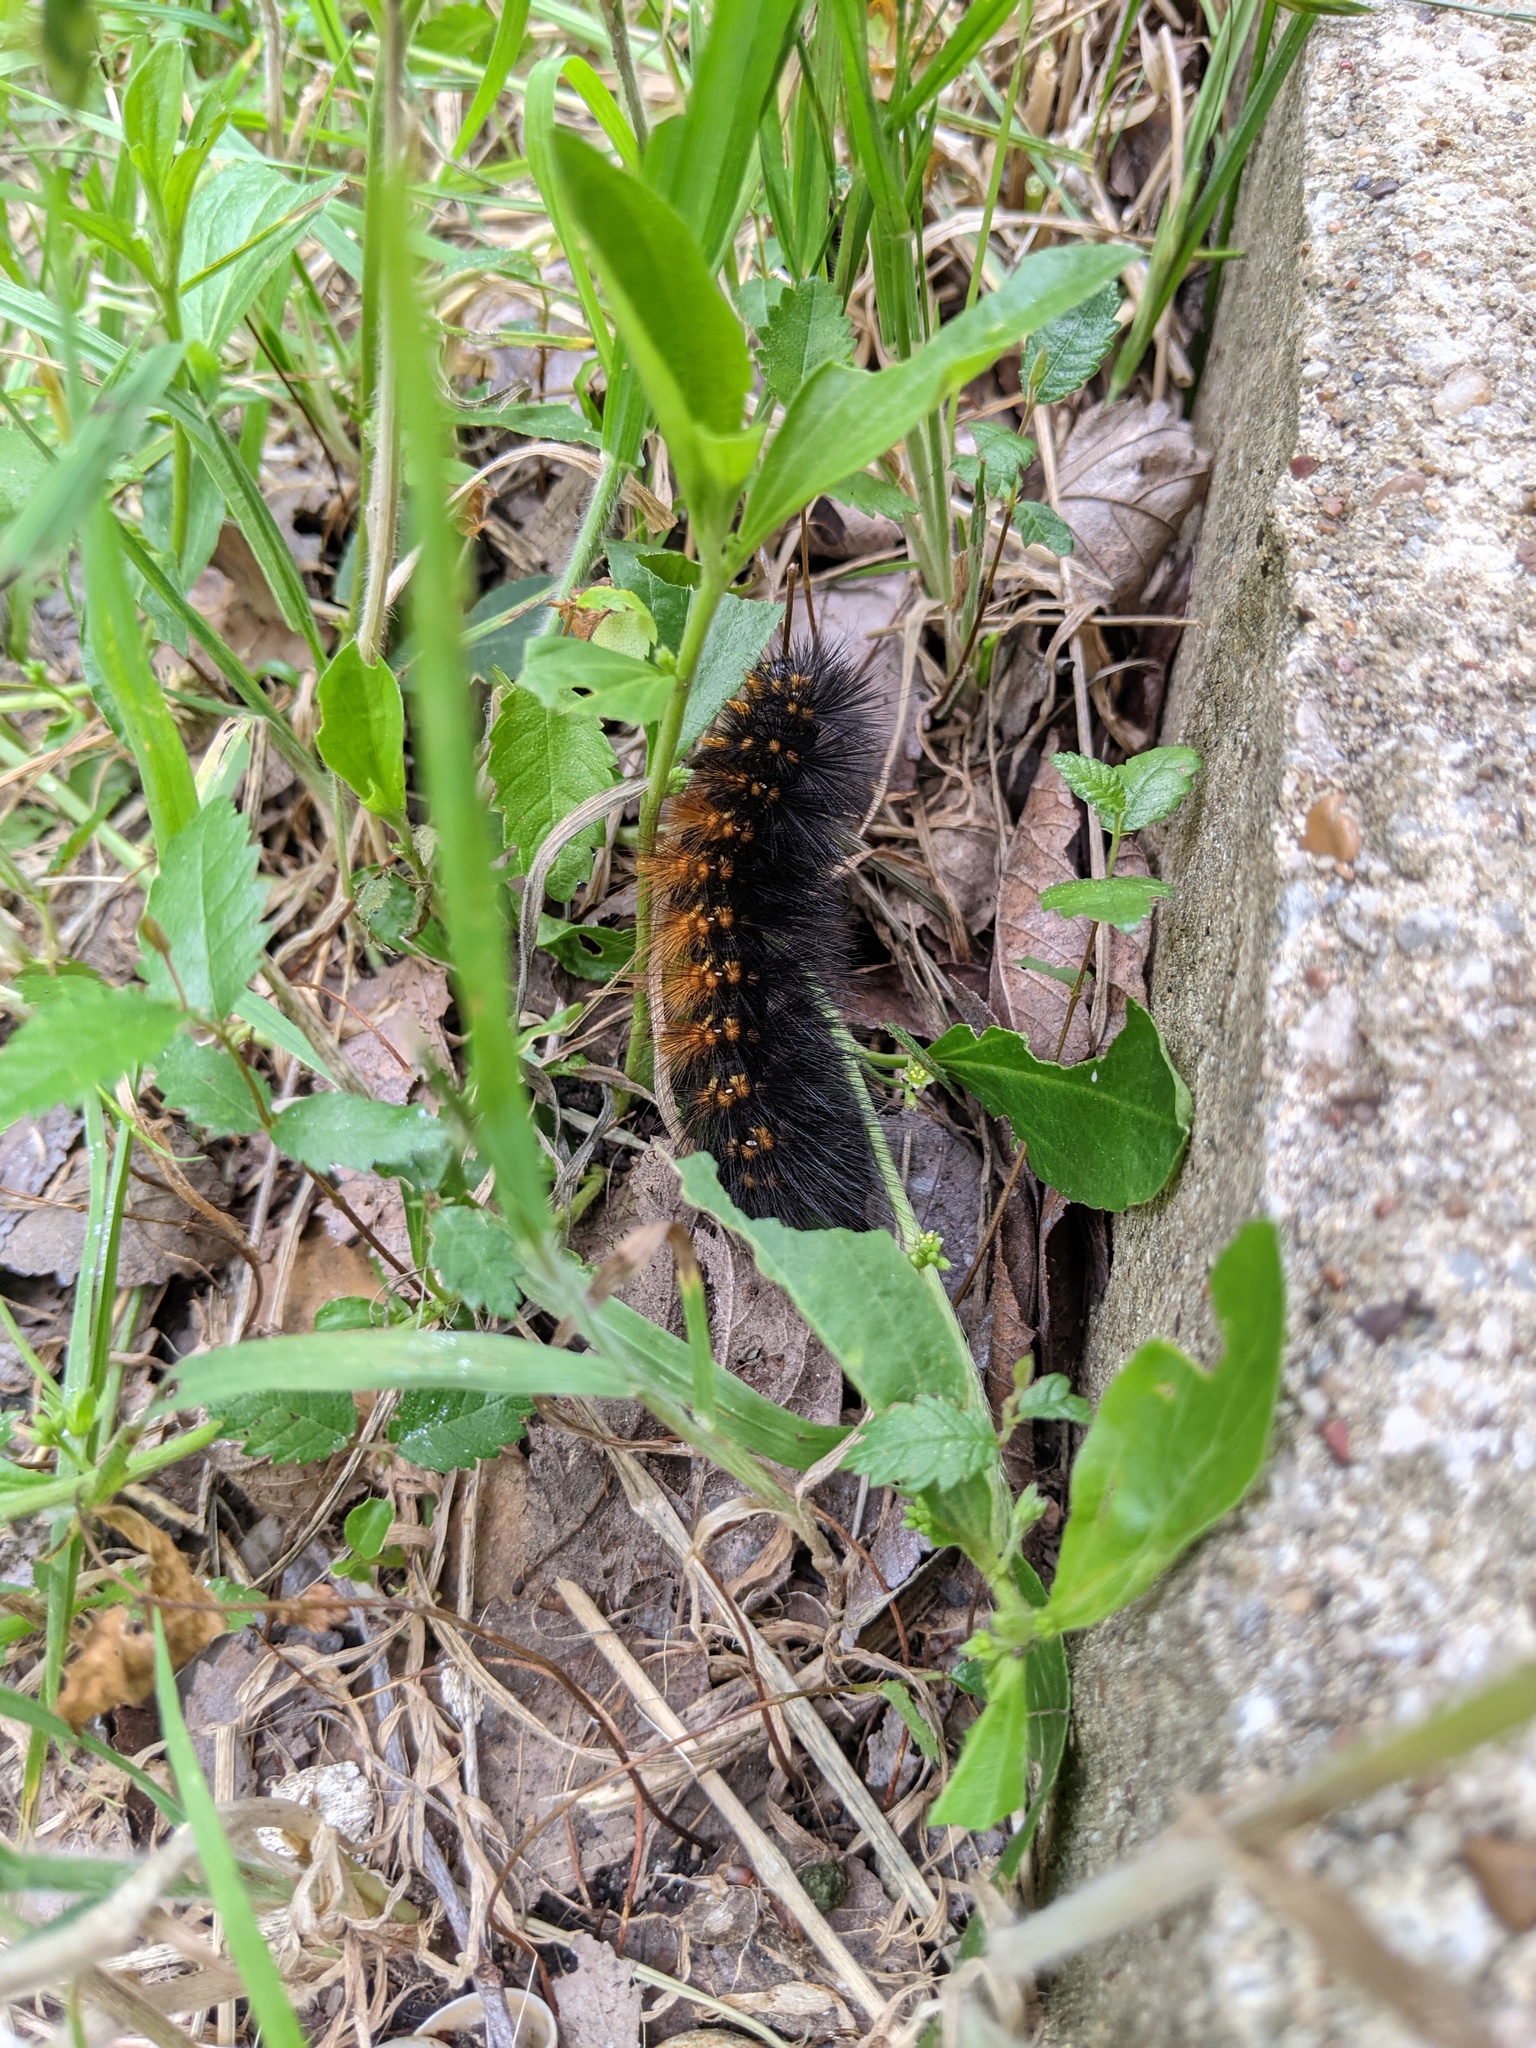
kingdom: Animalia
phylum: Arthropoda
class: Insecta
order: Lepidoptera
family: Erebidae
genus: Estigmene
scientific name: Estigmene acrea
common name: Salt marsh moth
